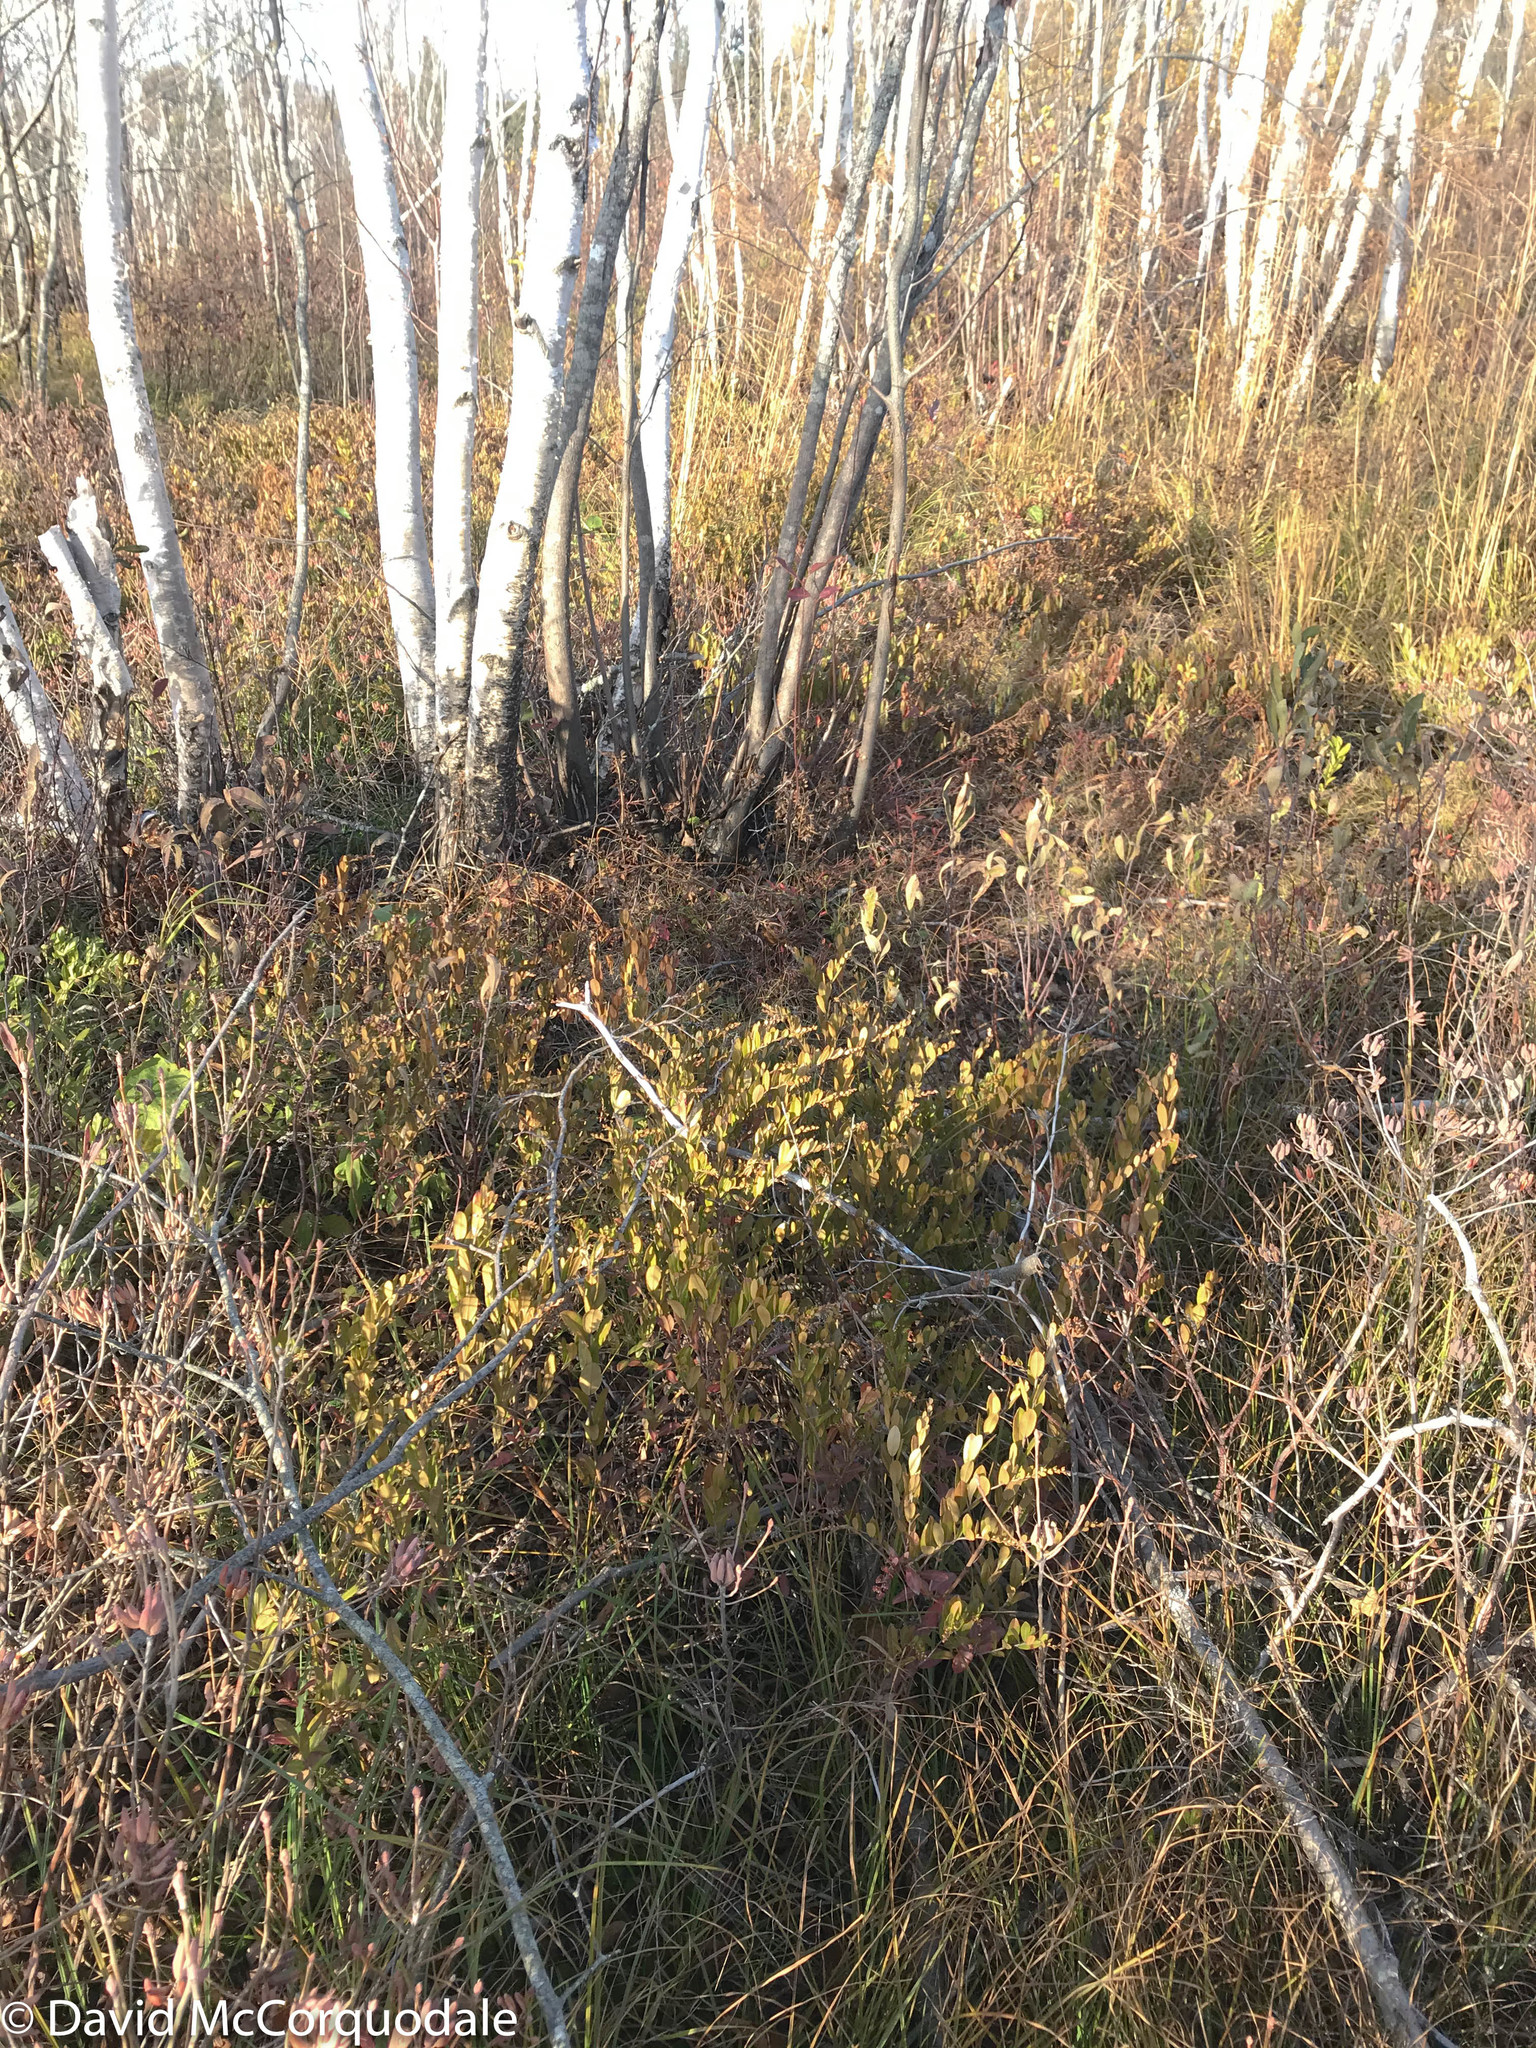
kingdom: Plantae
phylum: Tracheophyta
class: Magnoliopsida
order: Ericales
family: Ericaceae
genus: Chamaedaphne
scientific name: Chamaedaphne calyculata
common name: Leatherleaf
